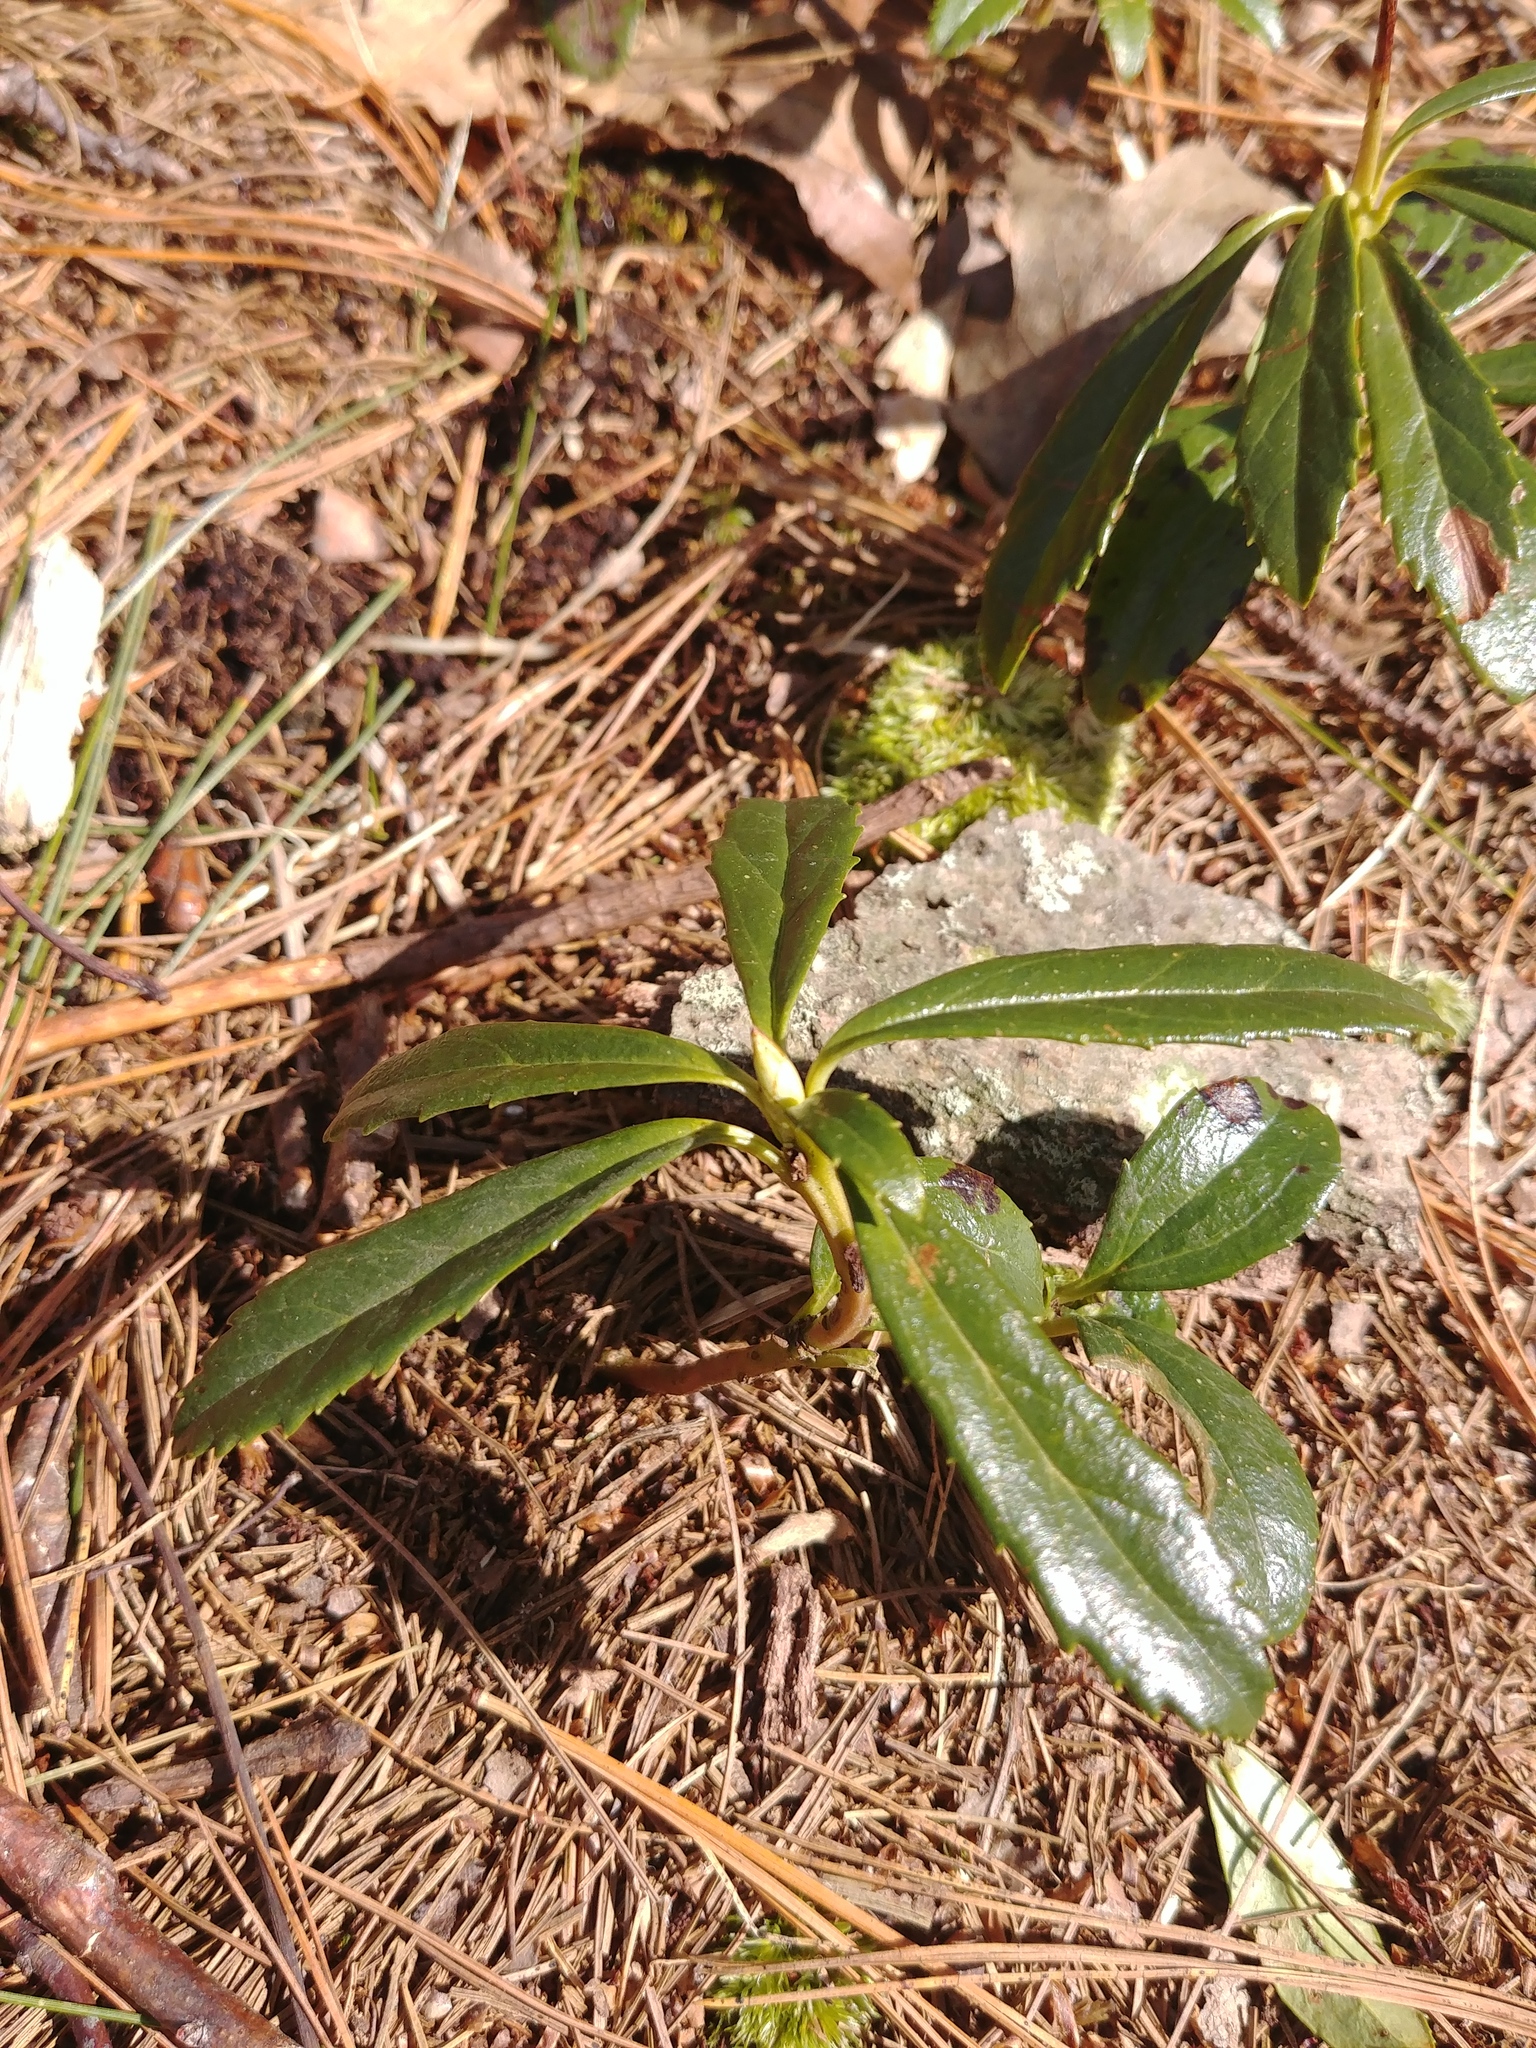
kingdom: Plantae
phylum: Tracheophyta
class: Magnoliopsida
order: Ericales
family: Ericaceae
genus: Chimaphila
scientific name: Chimaphila umbellata
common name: Pipsissewa
